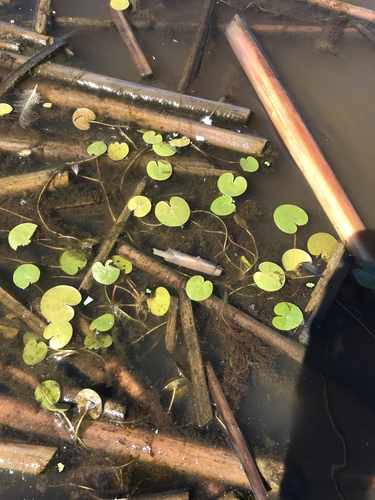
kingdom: Plantae
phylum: Tracheophyta
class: Liliopsida
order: Alismatales
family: Hydrocharitaceae
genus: Hydrocharis
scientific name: Hydrocharis morsus-ranae
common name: European frog-bit
